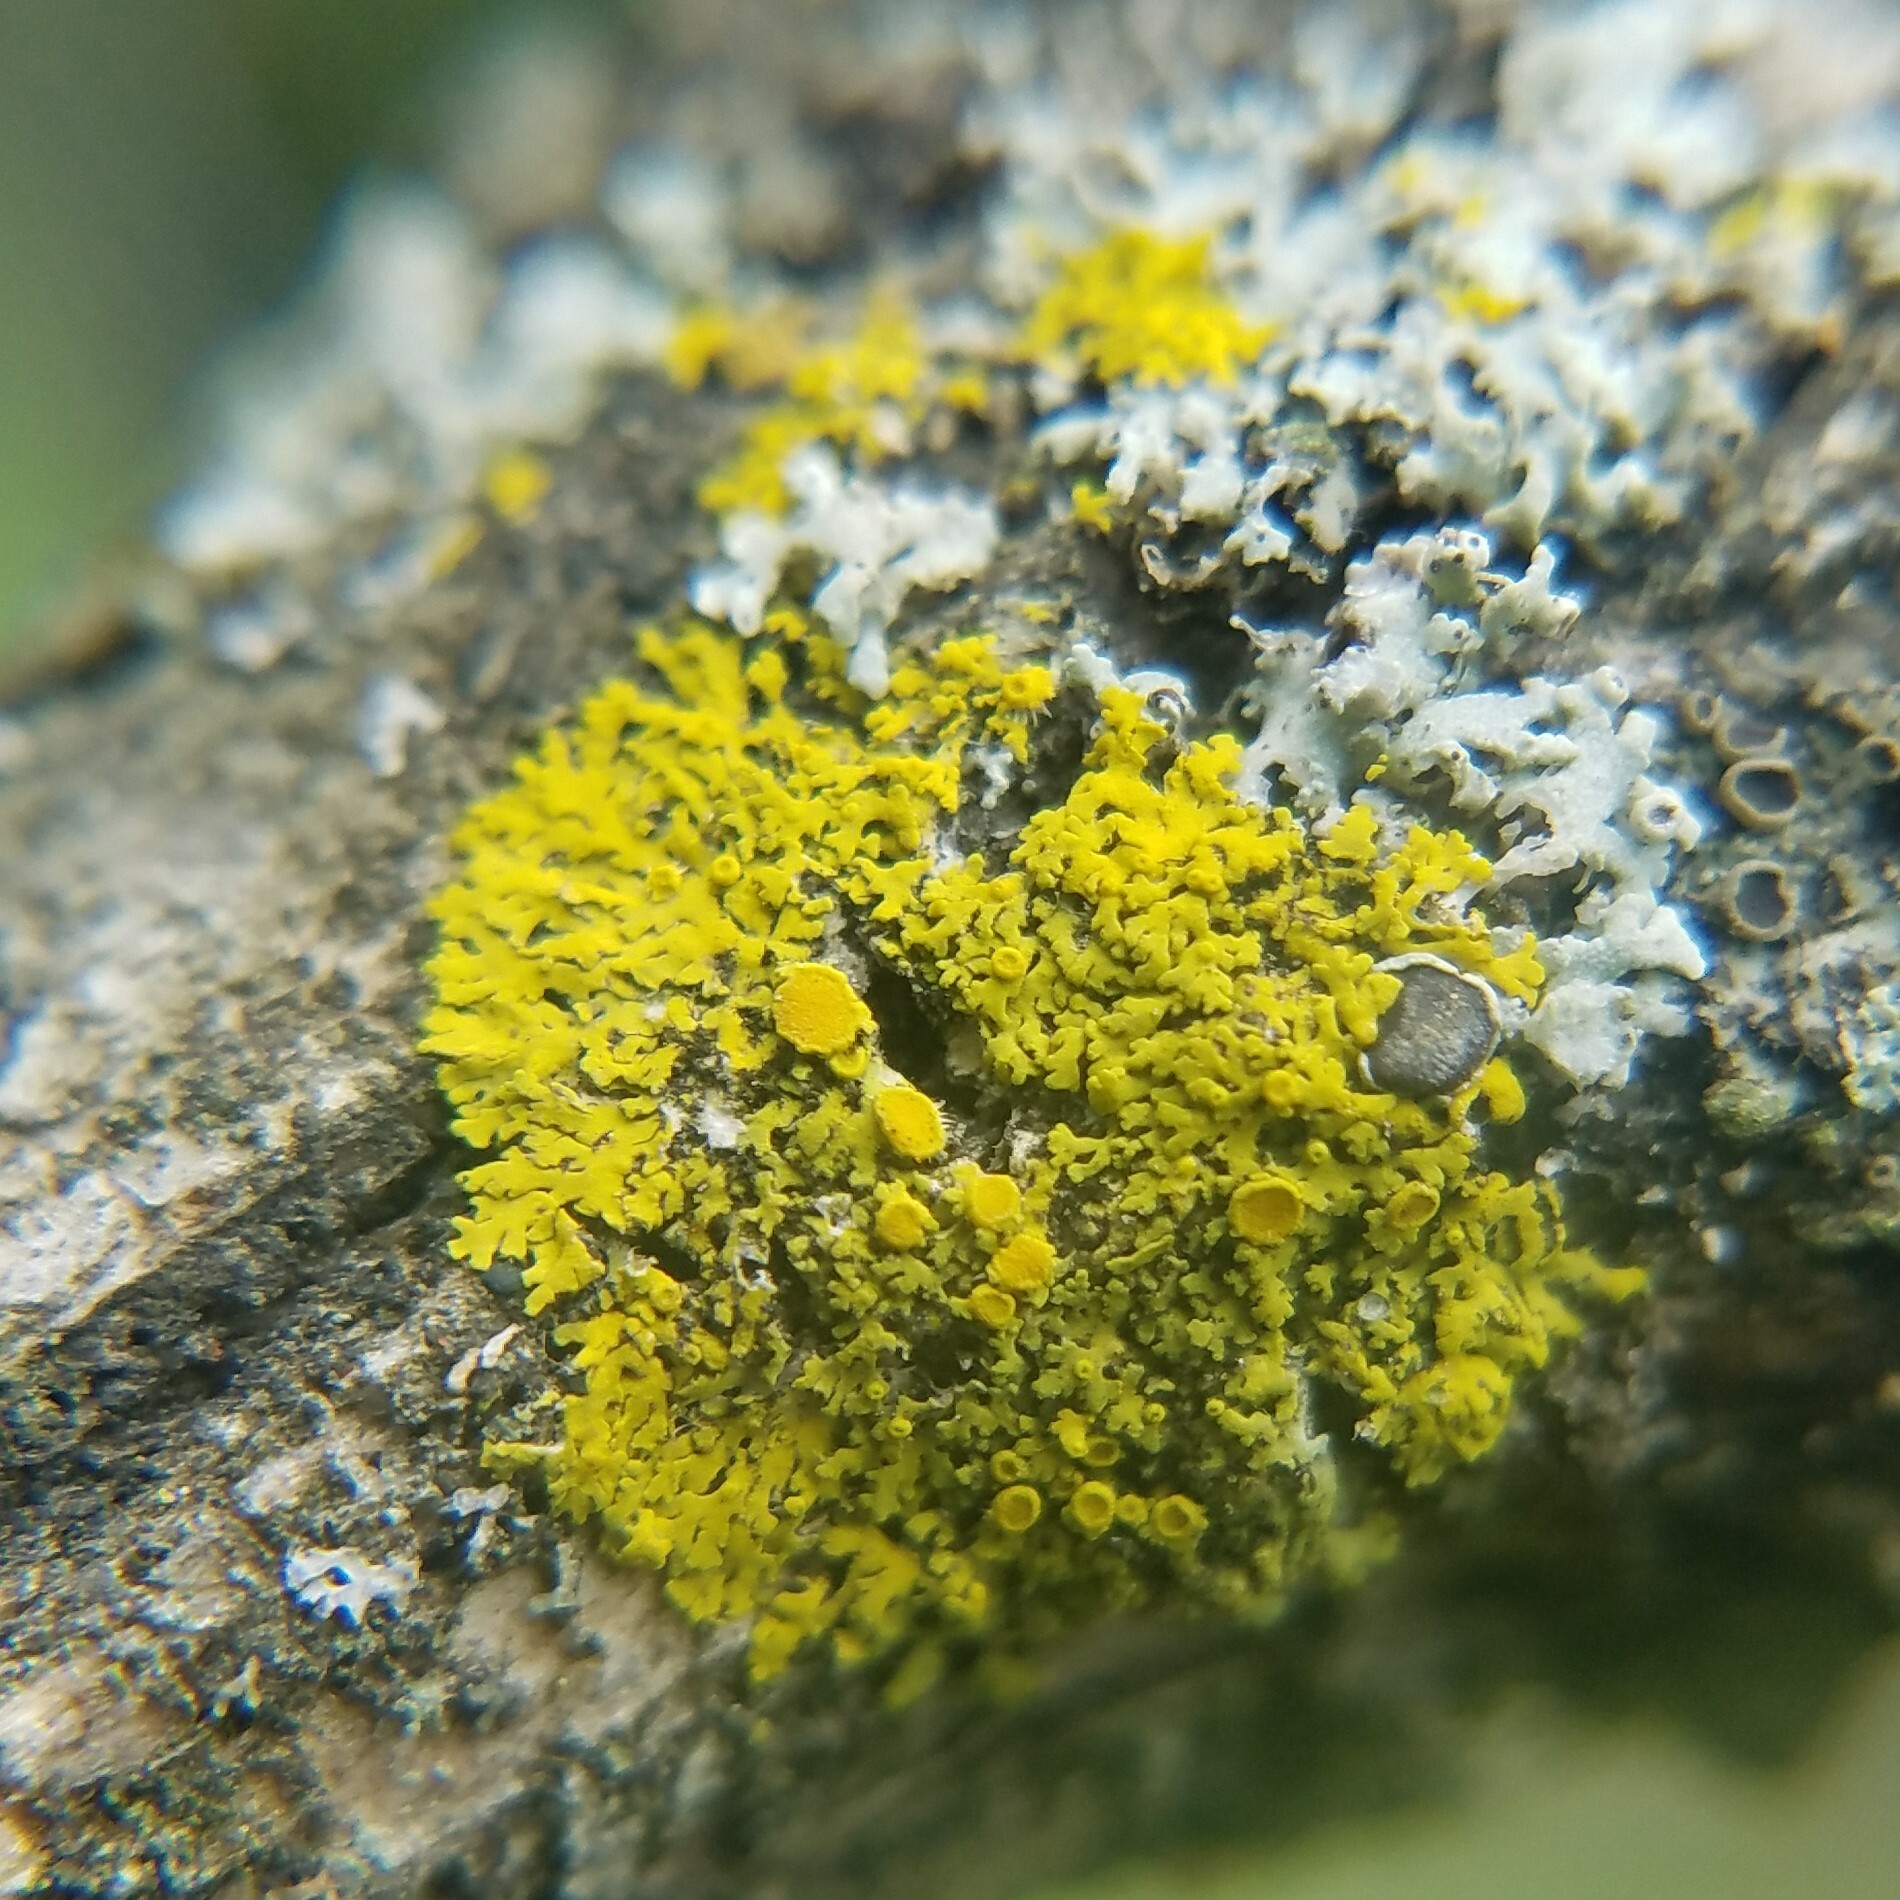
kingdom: Fungi
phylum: Ascomycota
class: Candelariomycetes
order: Candelariales
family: Candelariaceae
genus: Candelaria
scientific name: Candelaria fibrosa
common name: Fringed candleflame lichen
